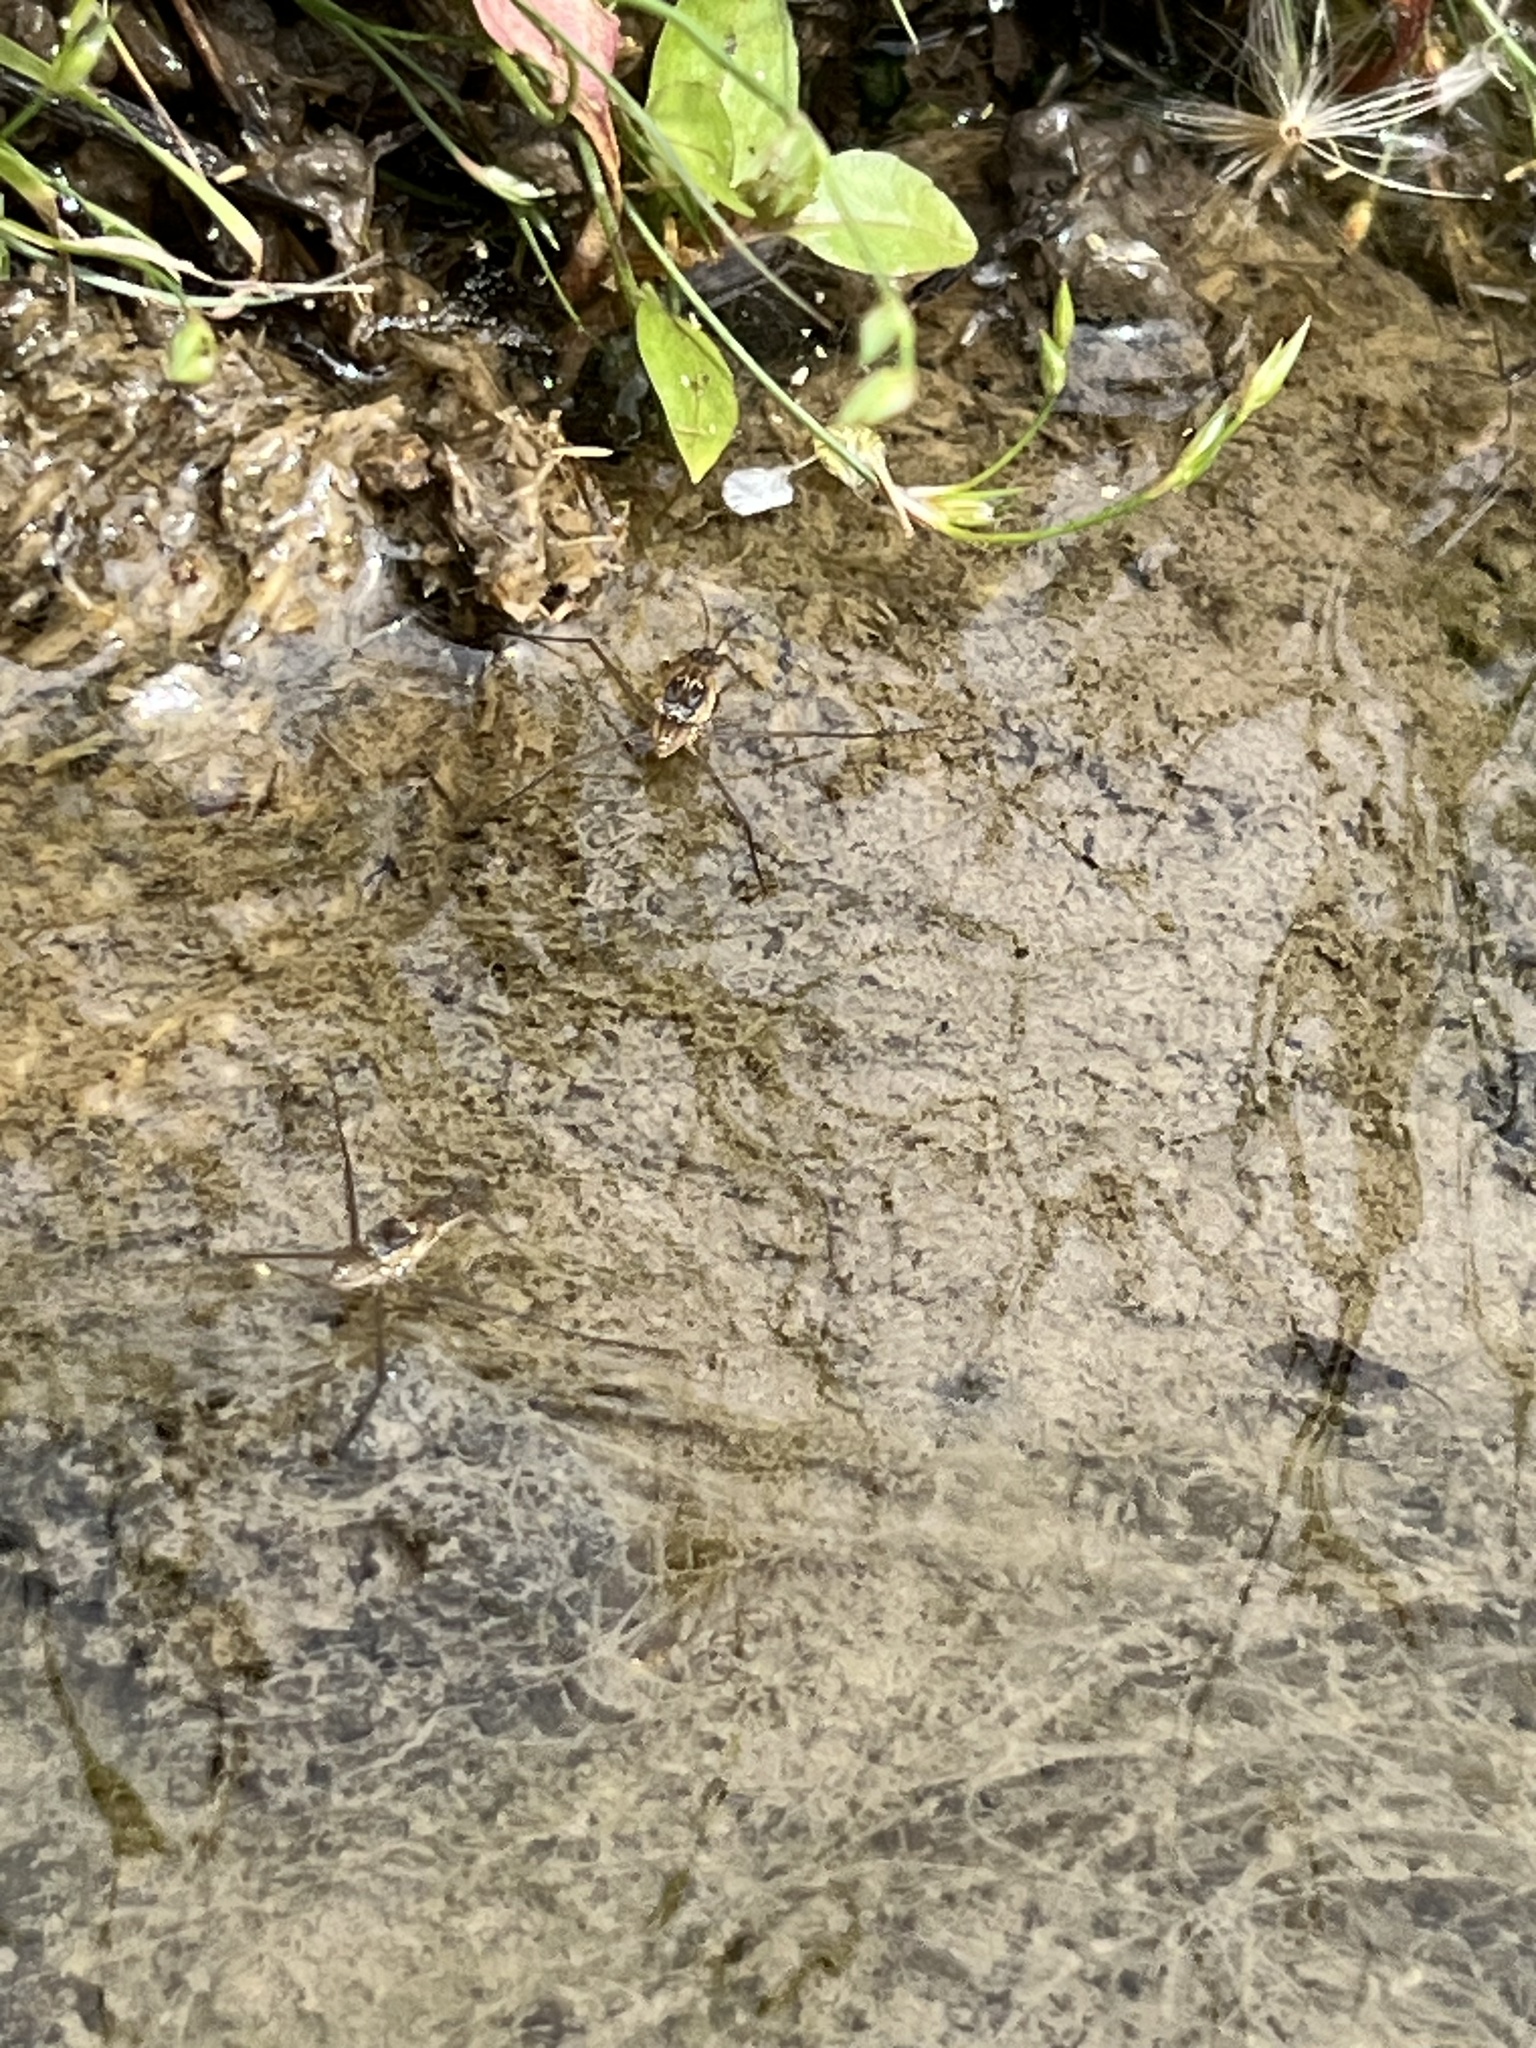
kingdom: Animalia
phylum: Arthropoda
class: Insecta
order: Hemiptera
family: Gerridae
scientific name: Gerridae
